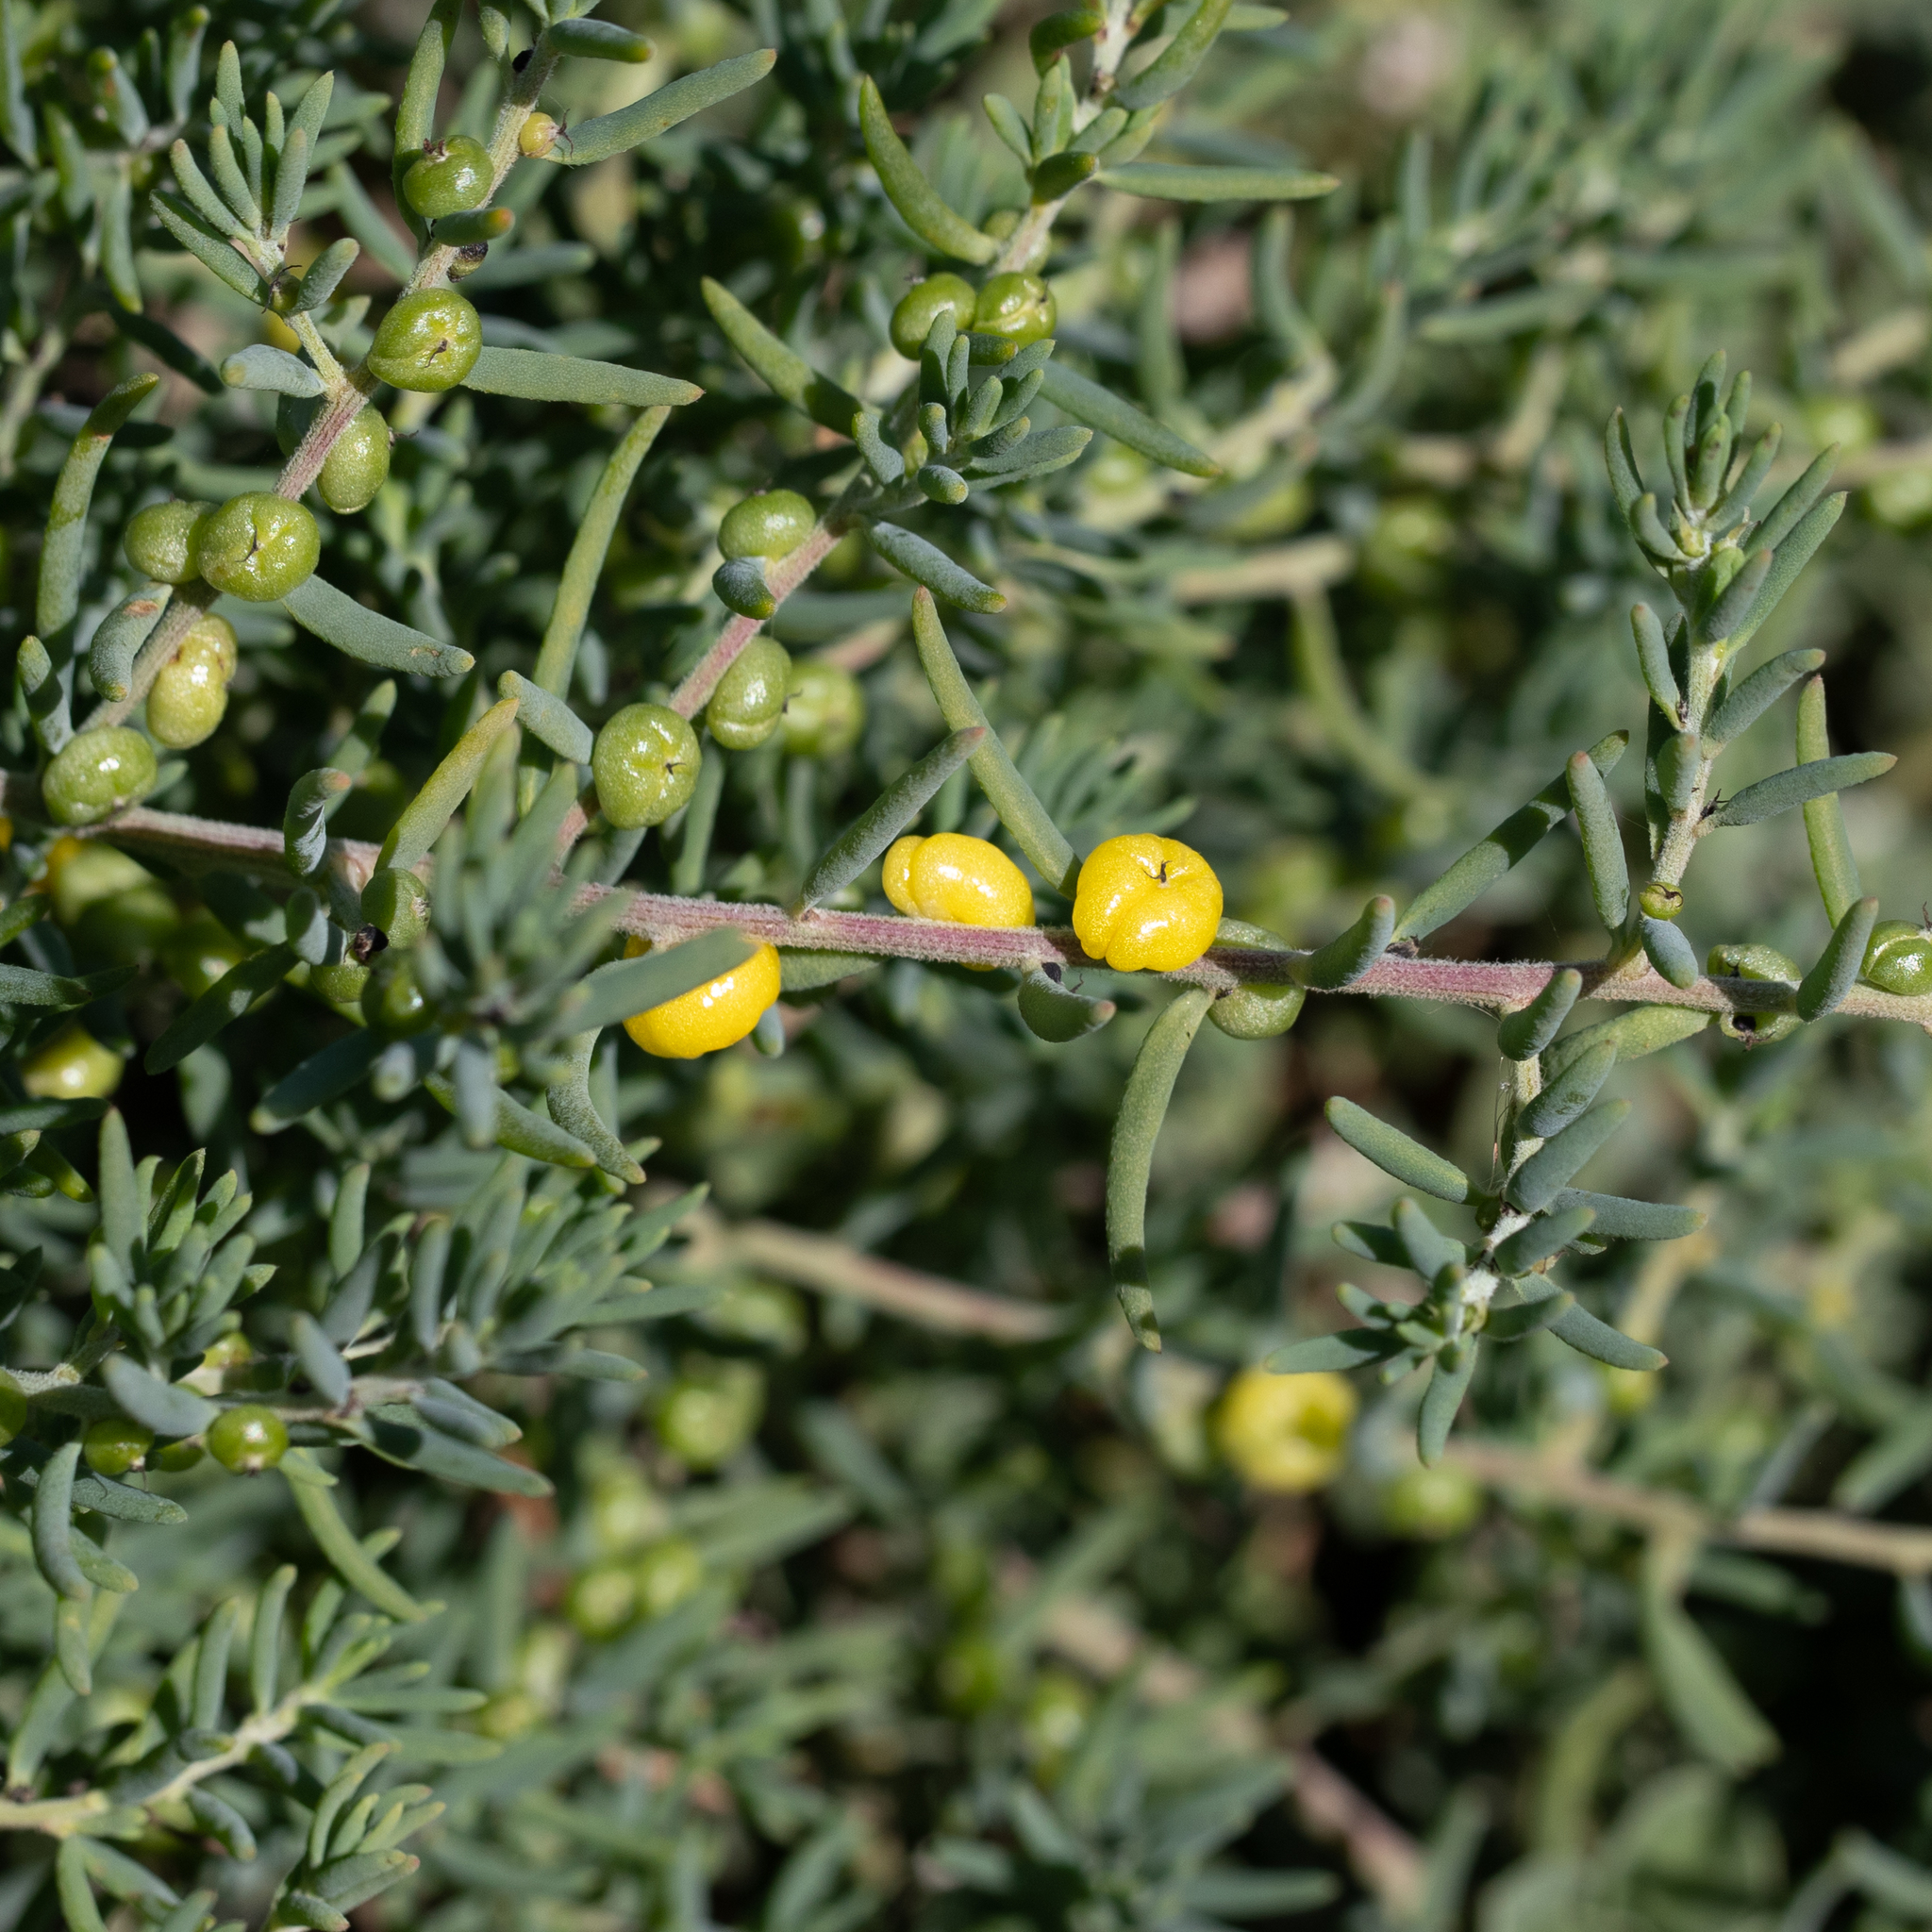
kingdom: Plantae
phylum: Tracheophyta
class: Magnoliopsida
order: Caryophyllales
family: Amaranthaceae
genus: Enchylaena
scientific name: Enchylaena tomentosa
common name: Ruby saltbush
